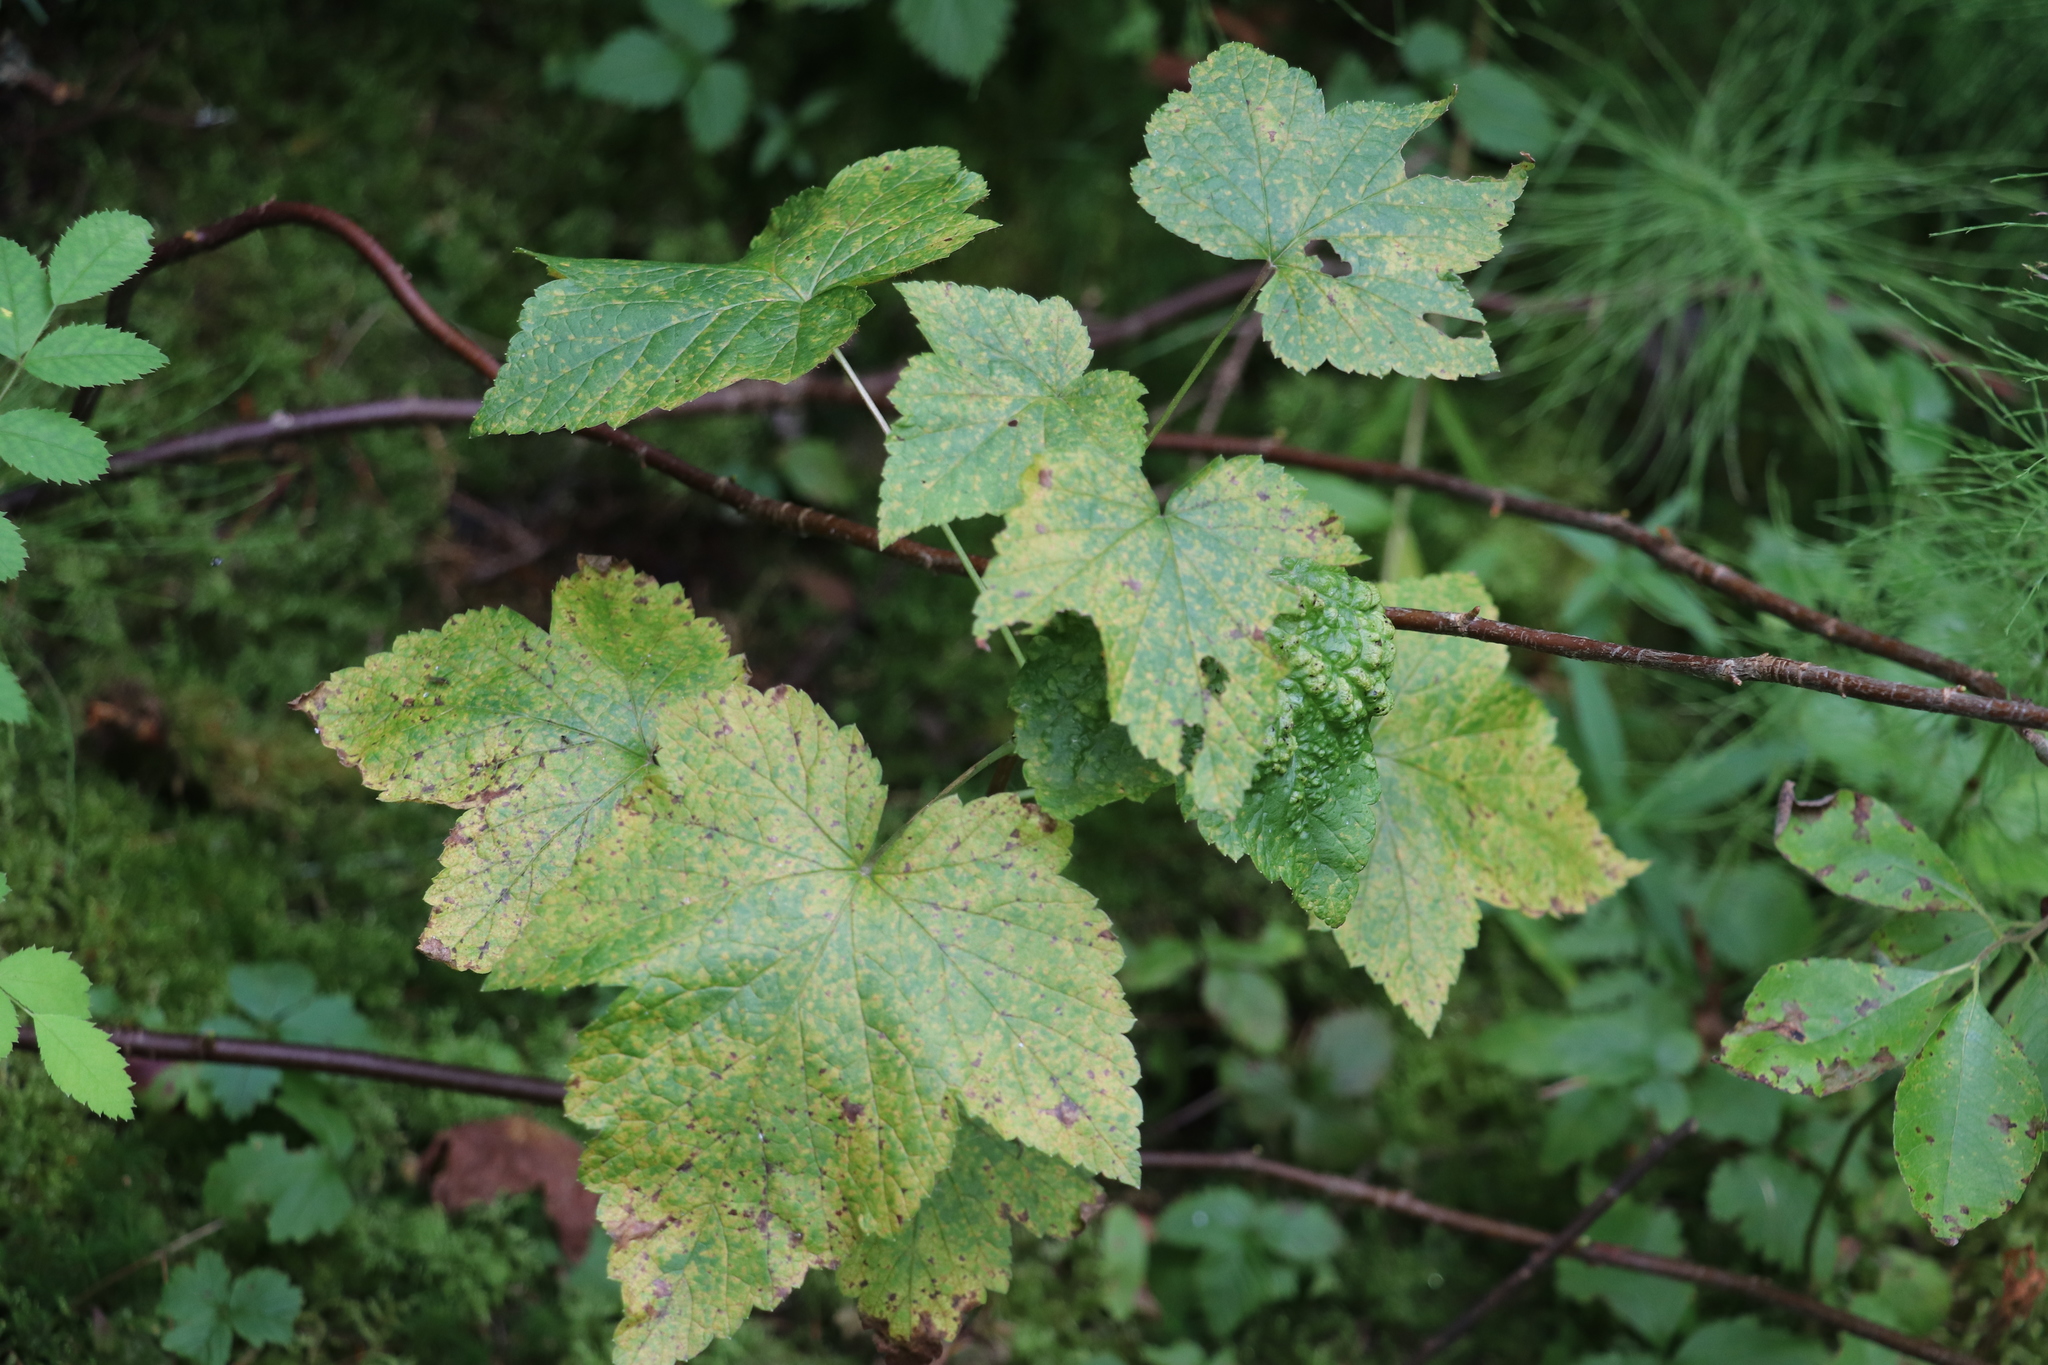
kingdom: Plantae
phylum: Tracheophyta
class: Magnoliopsida
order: Saxifragales
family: Grossulariaceae
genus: Ribes
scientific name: Ribes nigrum
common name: Black currant
